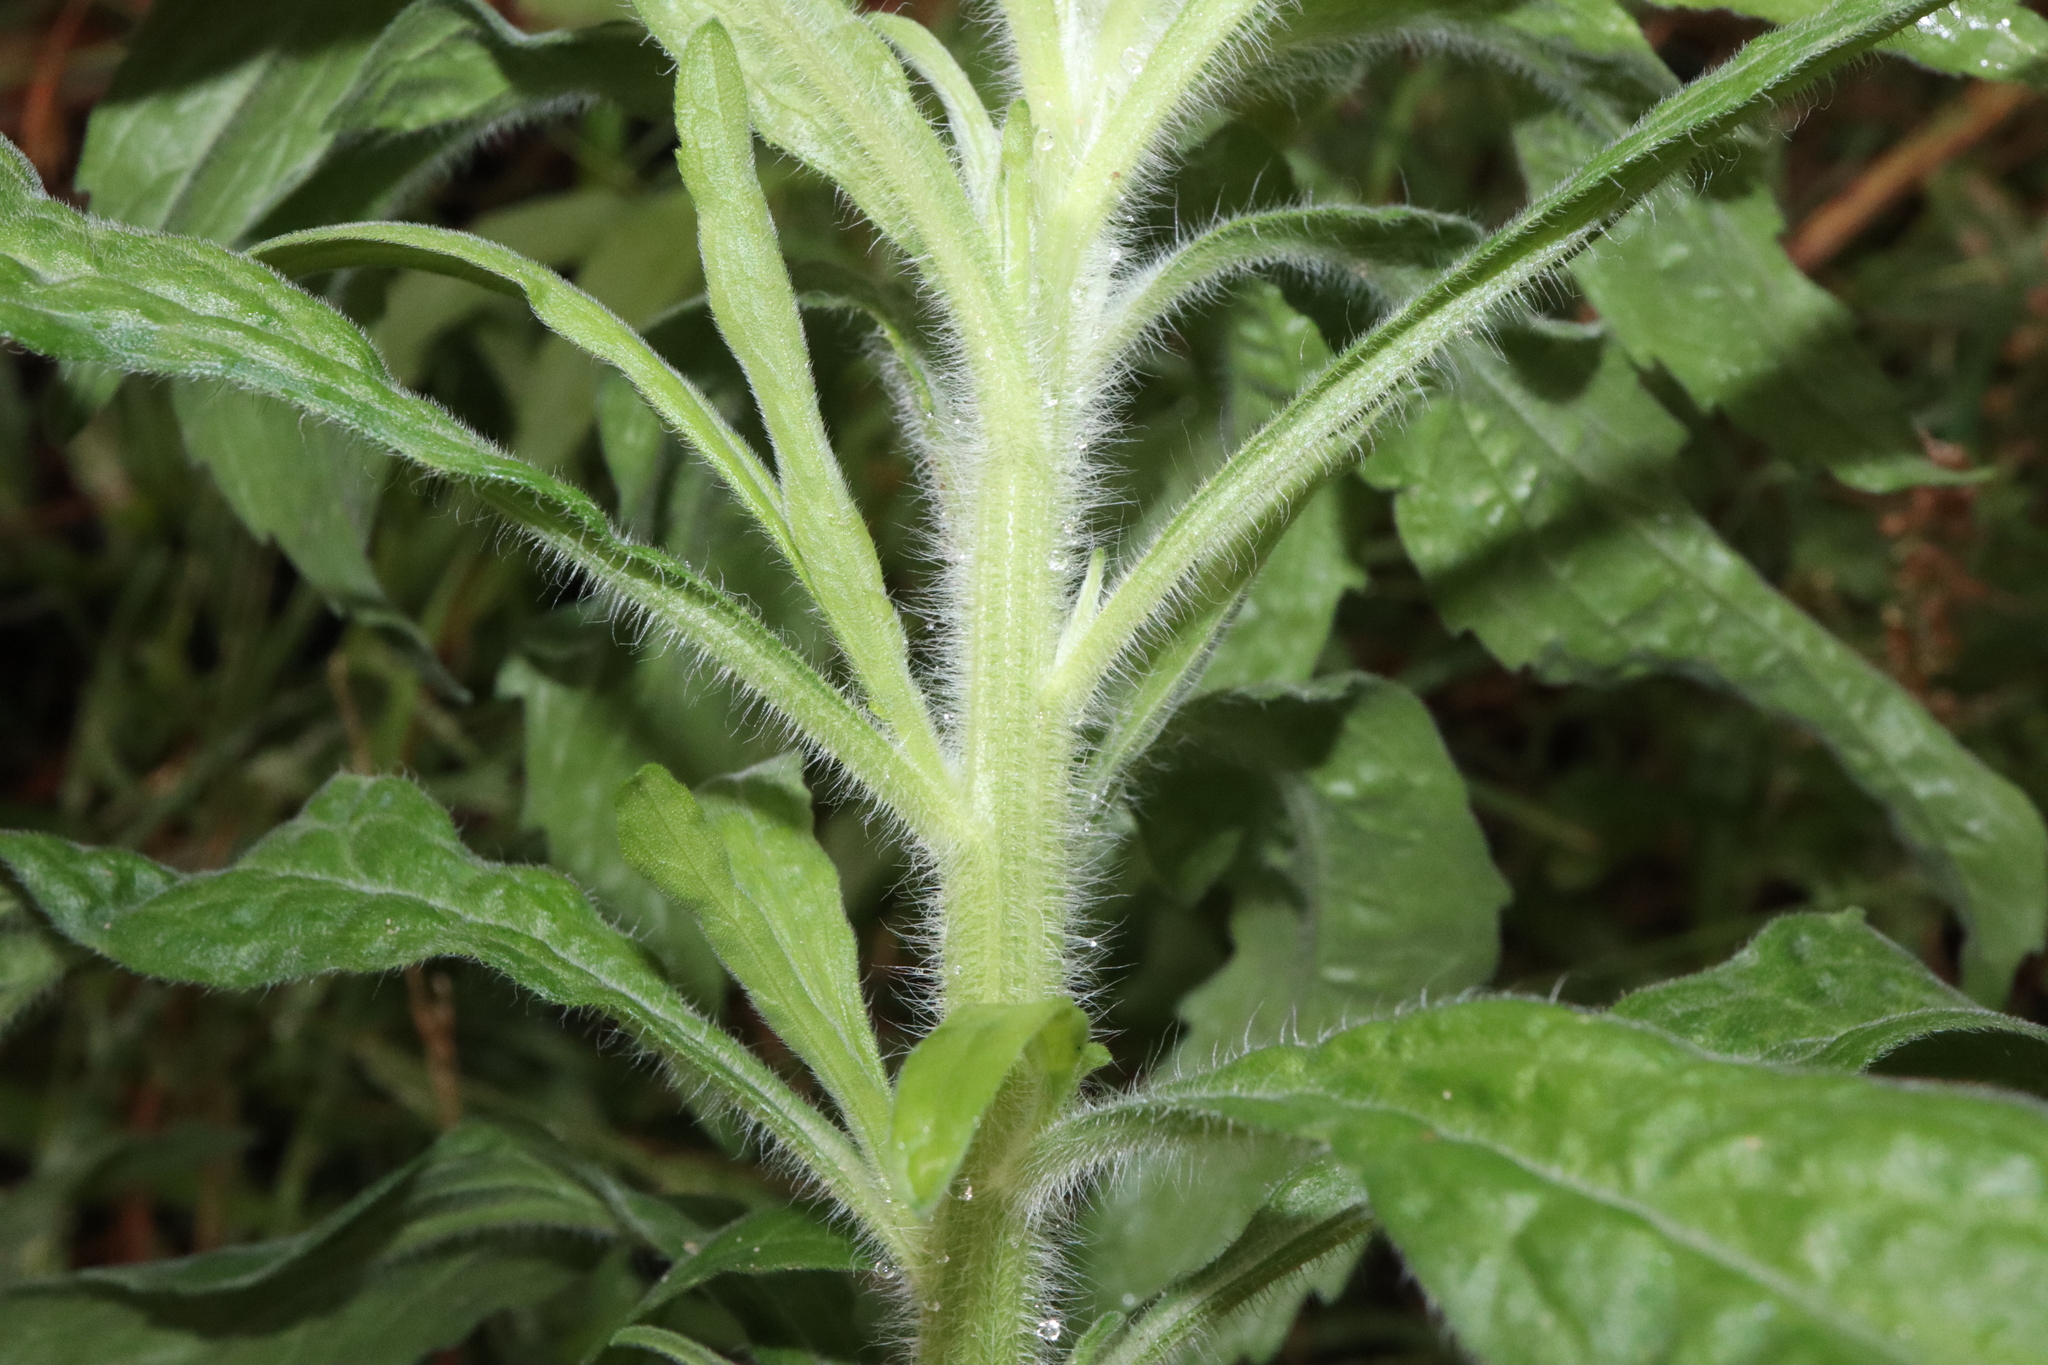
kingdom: Plantae
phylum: Tracheophyta
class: Magnoliopsida
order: Asterales
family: Asteraceae
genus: Erigeron
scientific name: Erigeron sumatrensis
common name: Daisy
